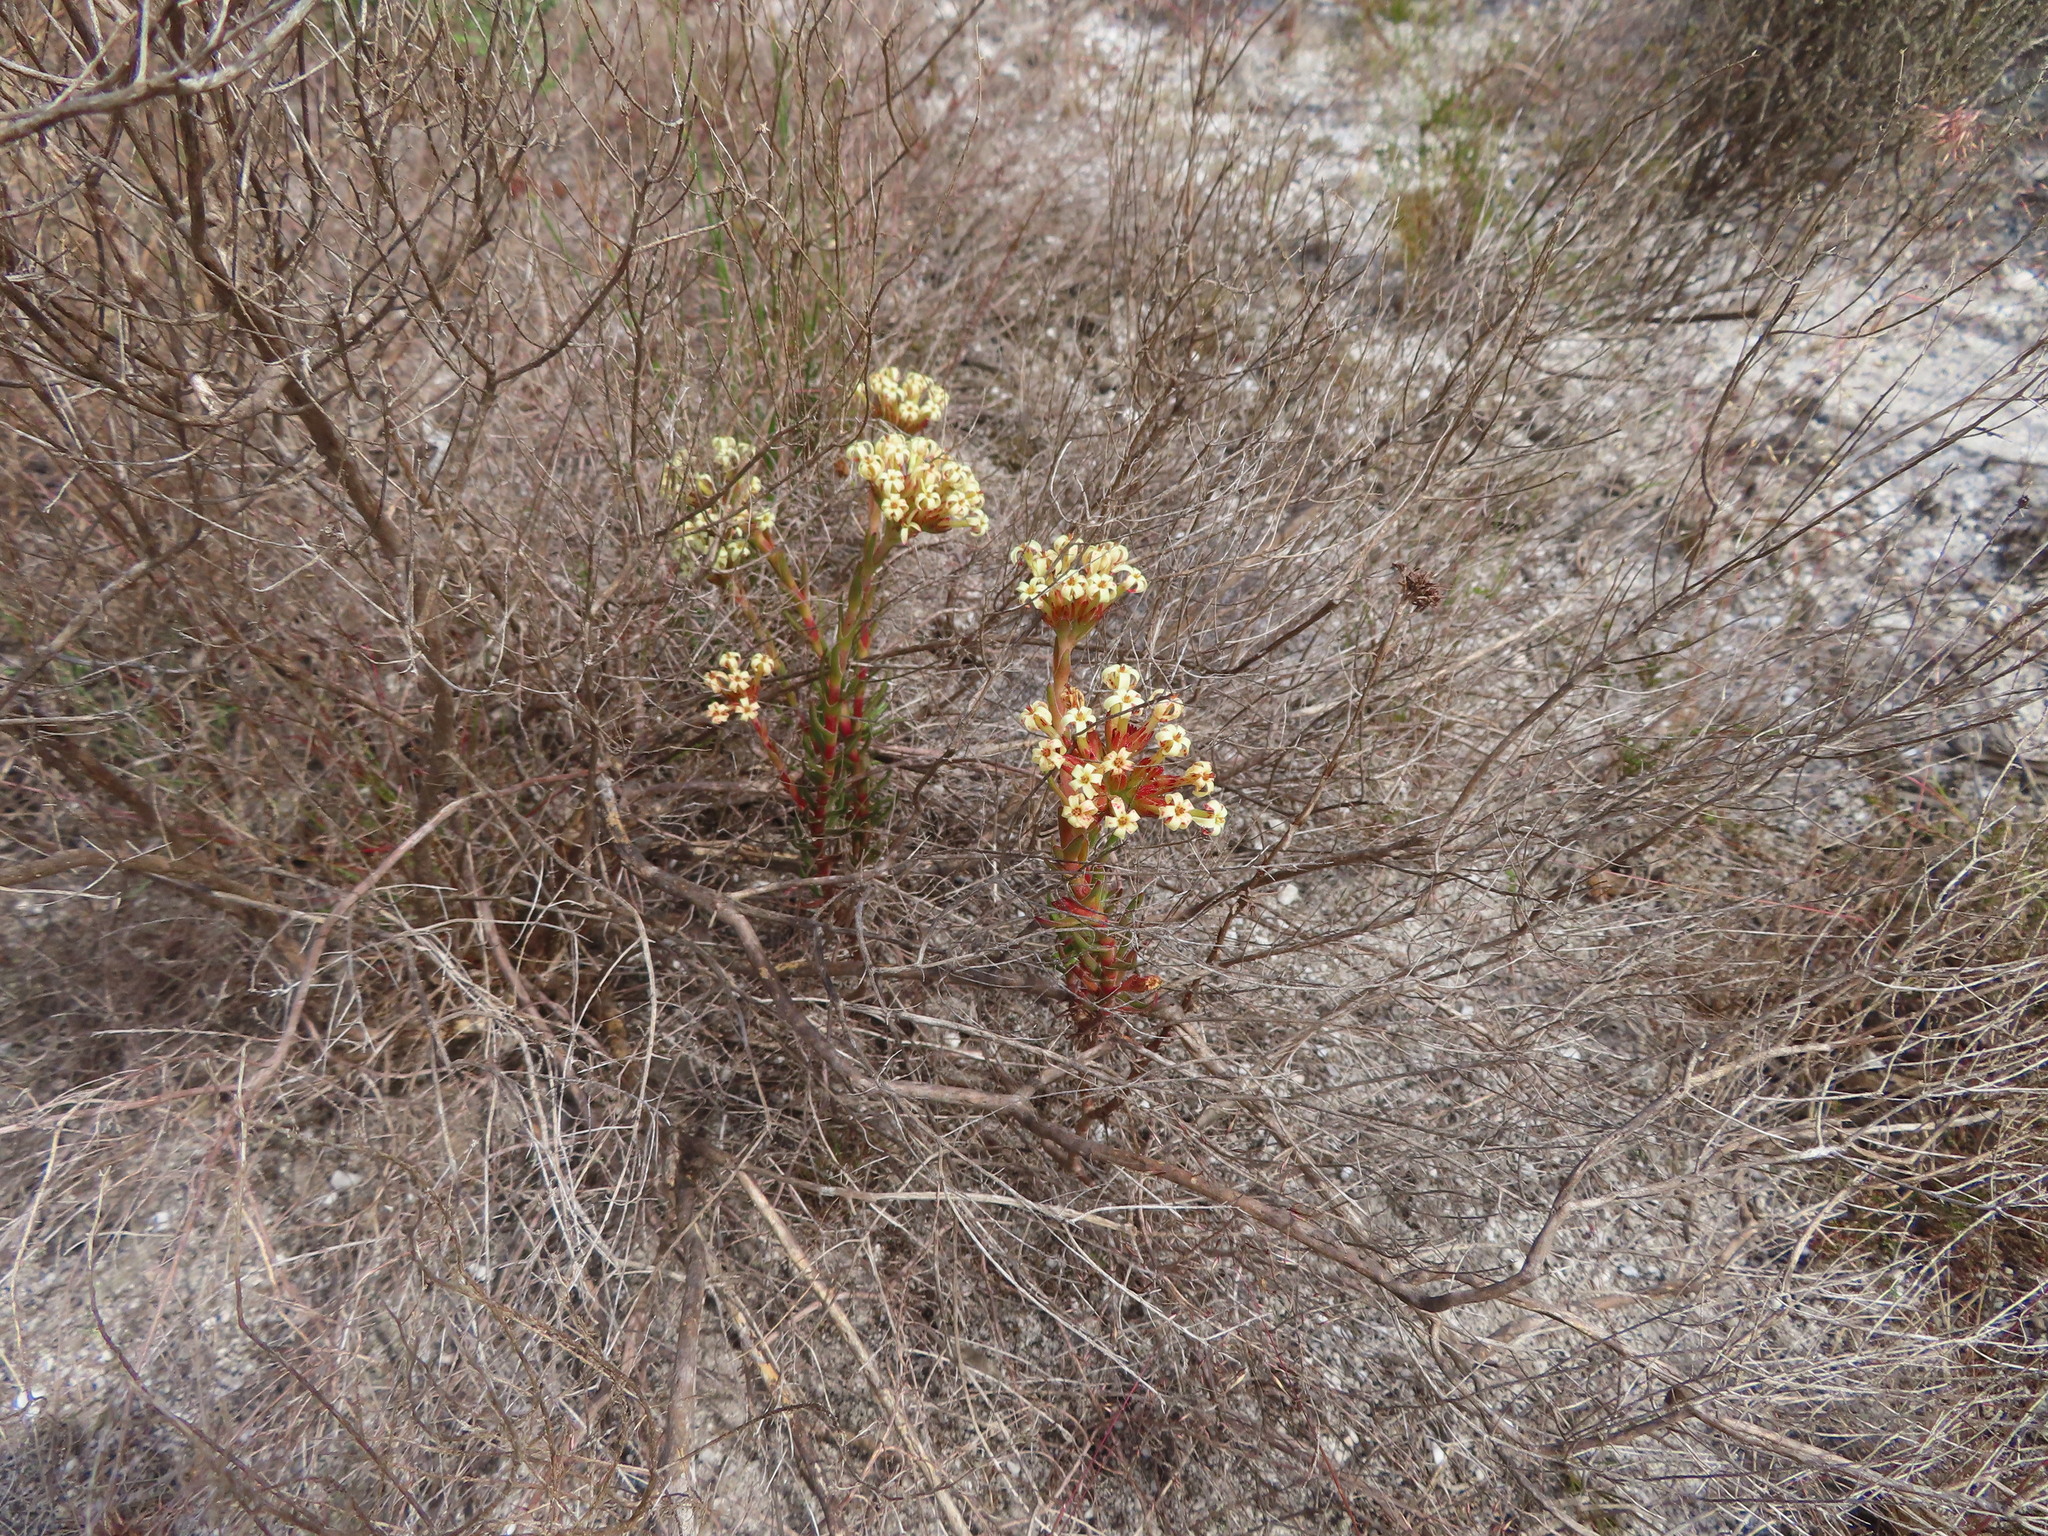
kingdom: Plantae
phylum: Tracheophyta
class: Magnoliopsida
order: Saxifragales
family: Crassulaceae
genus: Crassula
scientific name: Crassula fascicularis
